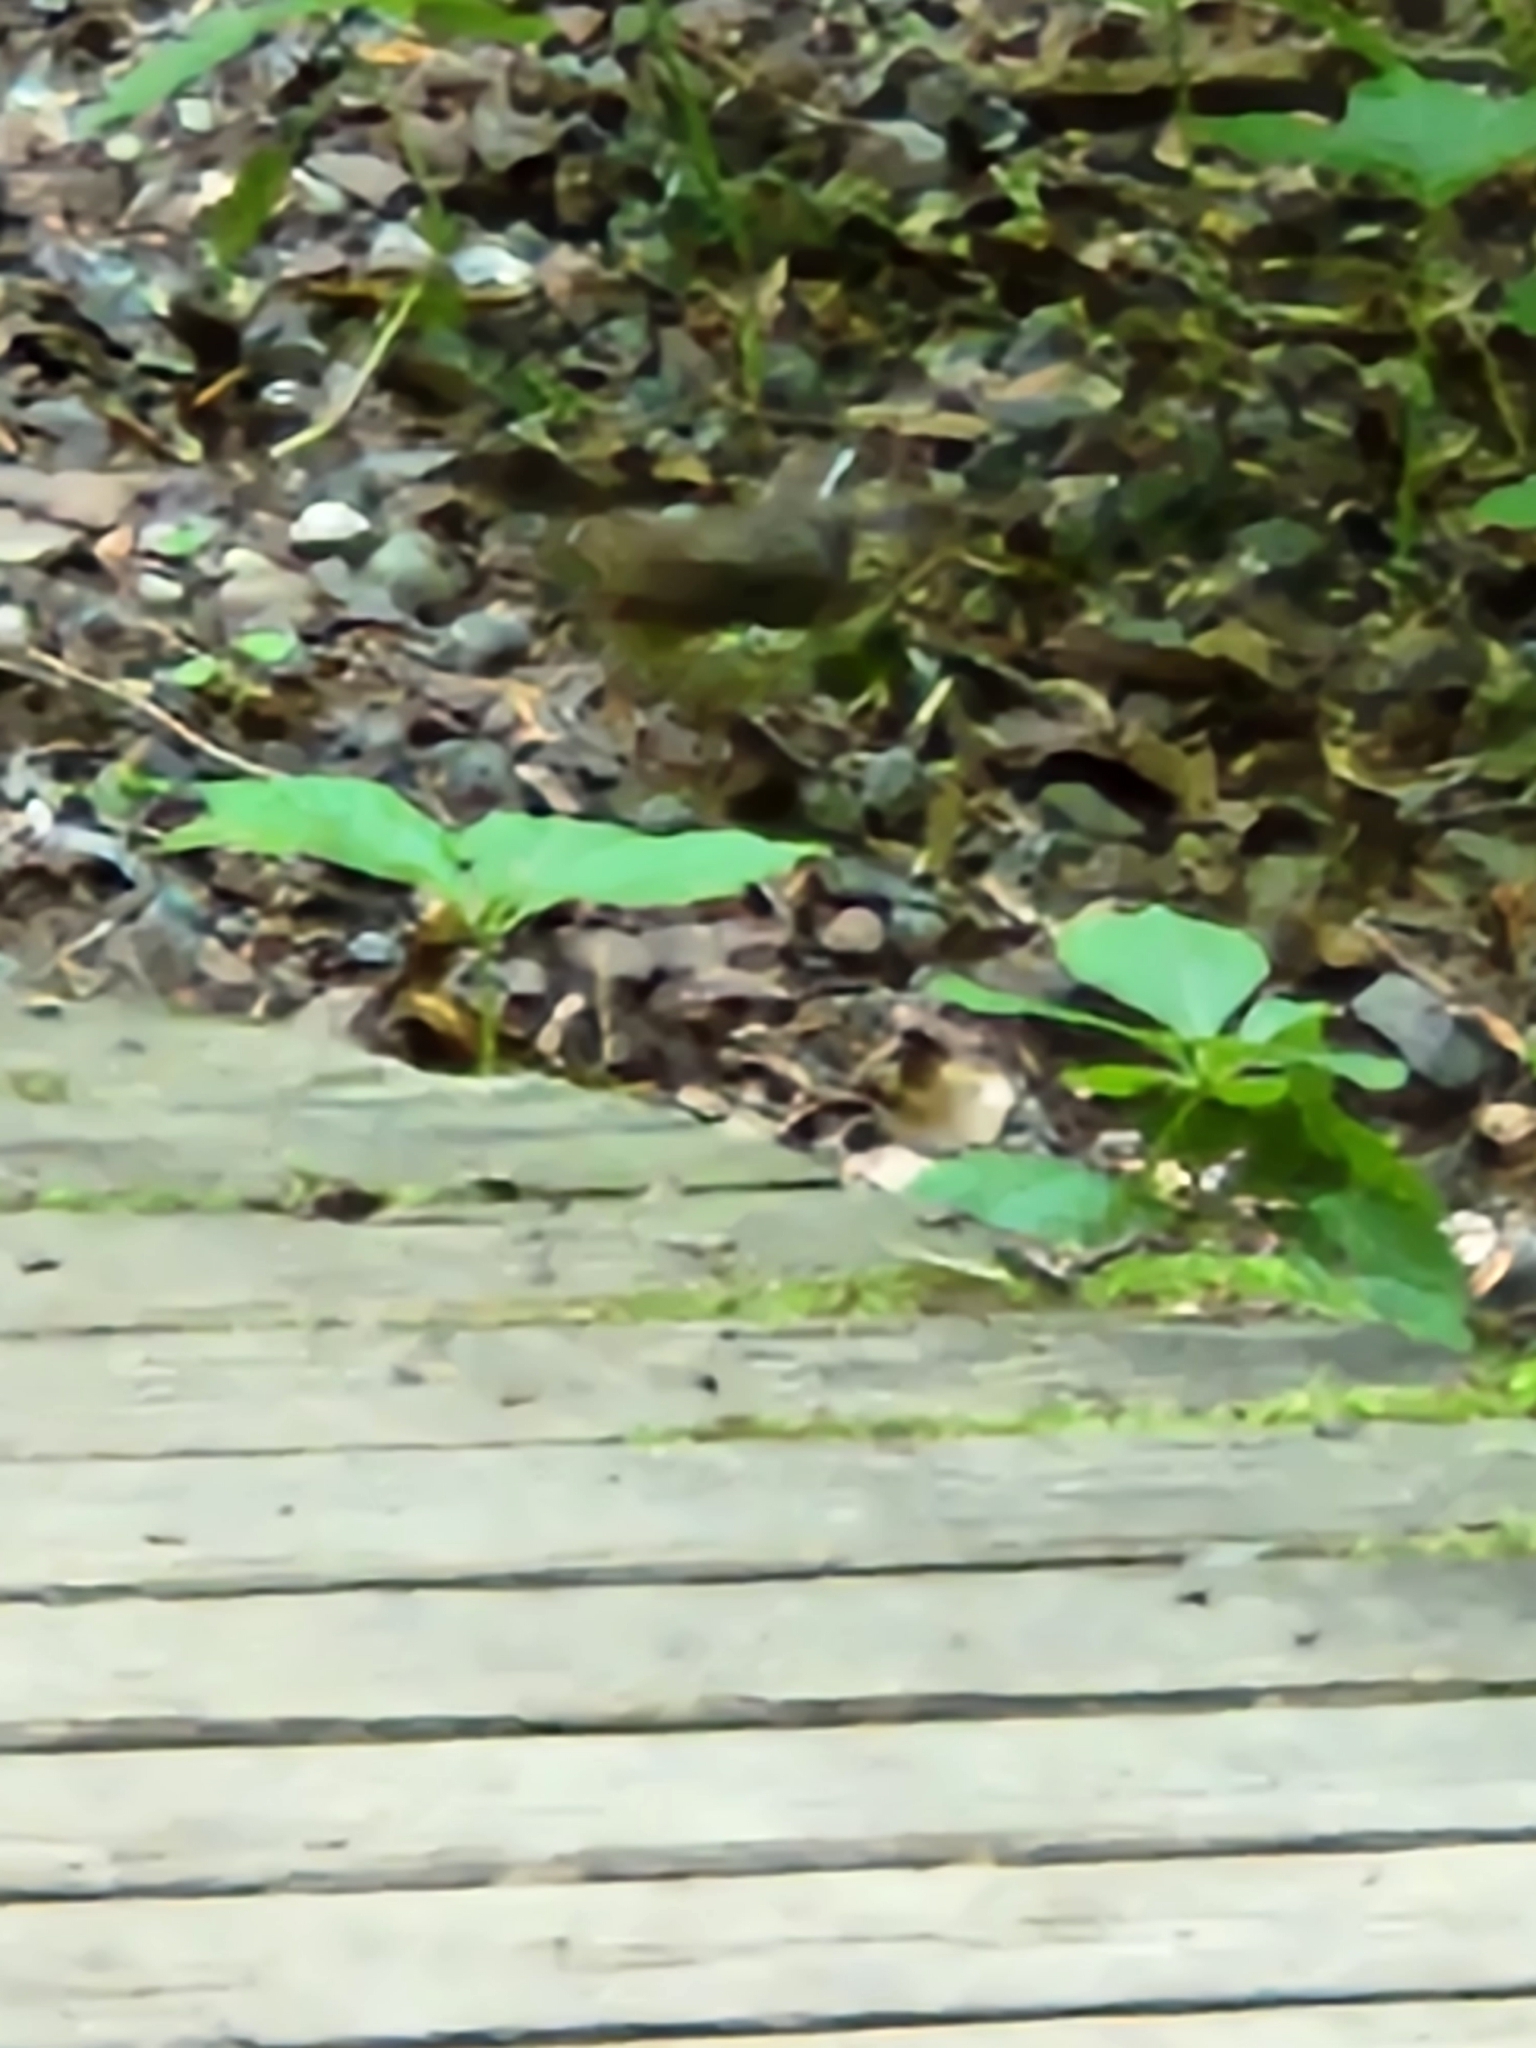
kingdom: Animalia
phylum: Chordata
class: Aves
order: Passeriformes
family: Parulidae
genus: Parkesia
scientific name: Parkesia motacilla
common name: Louisiana waterthrush
